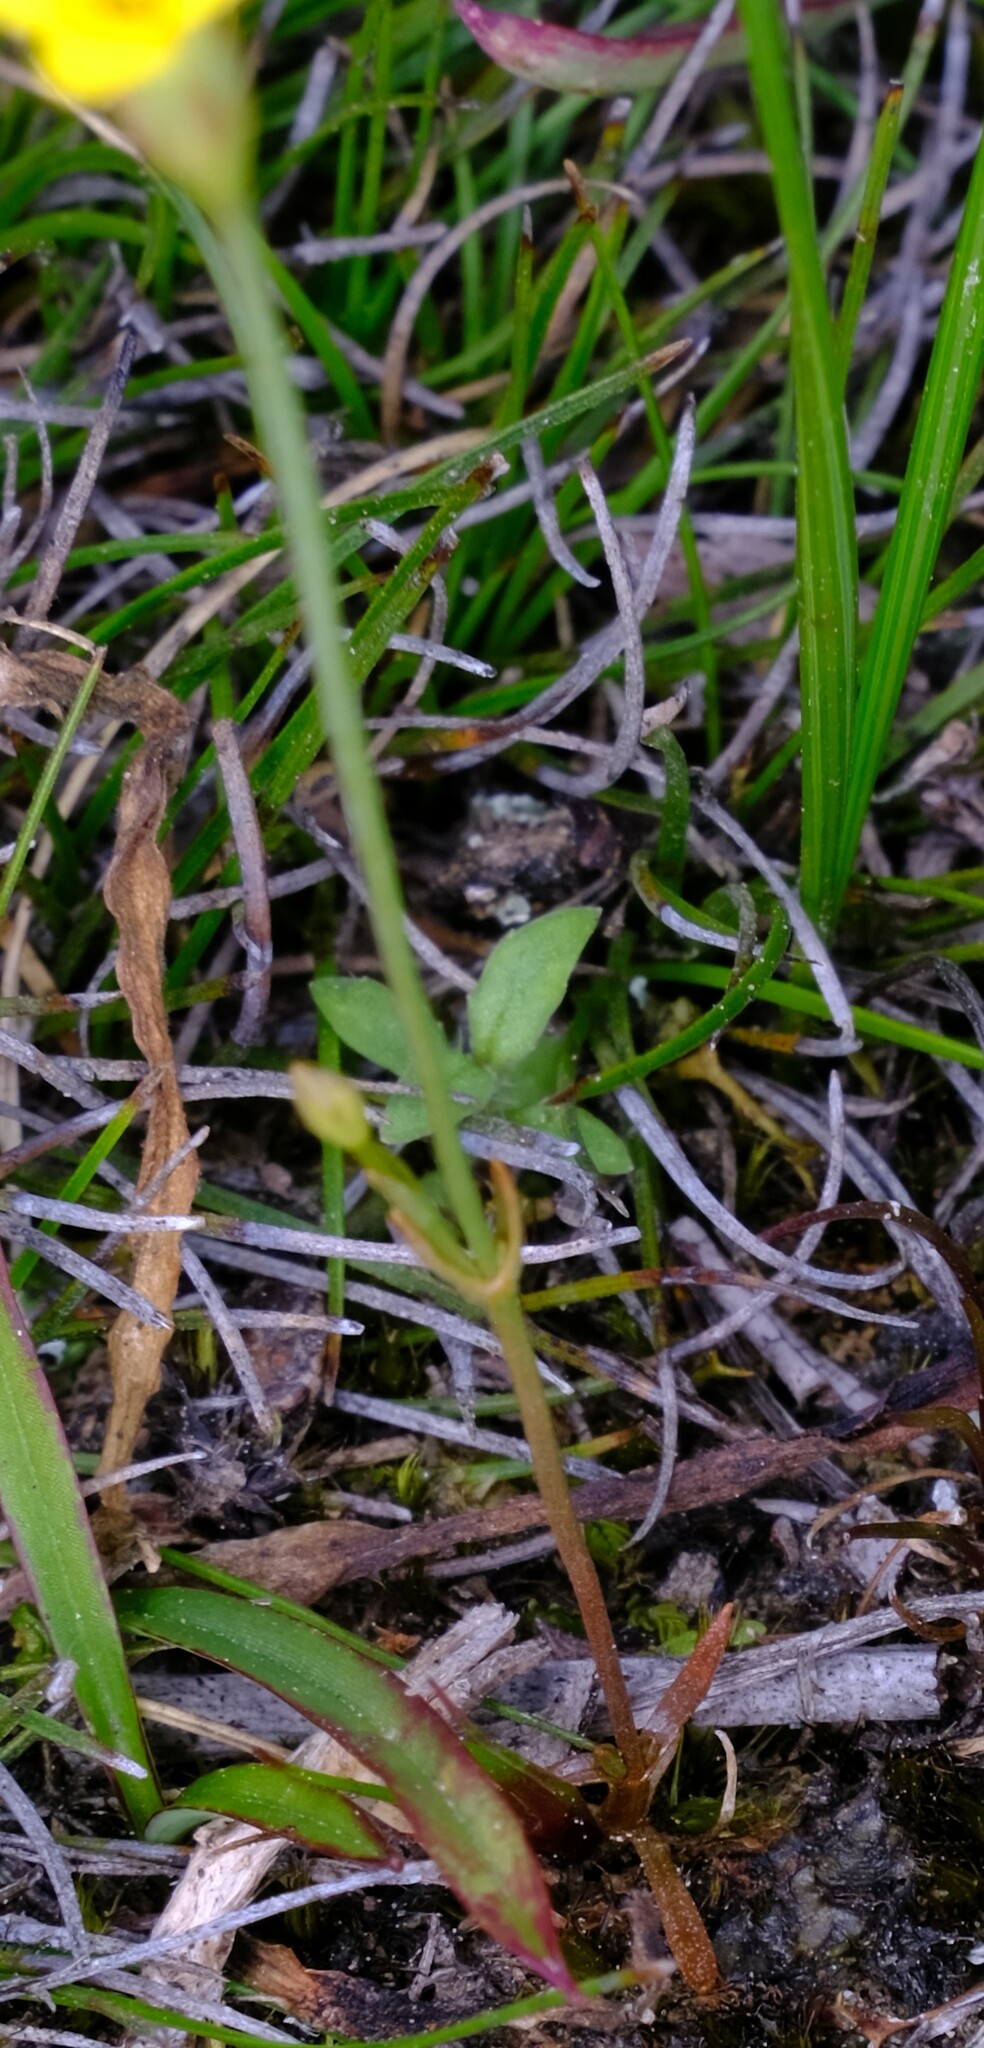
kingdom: Plantae
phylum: Tracheophyta
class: Magnoliopsida
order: Gentianales
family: Gentianaceae
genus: Cicendia
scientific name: Cicendia filiformis
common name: Yellow centaury
